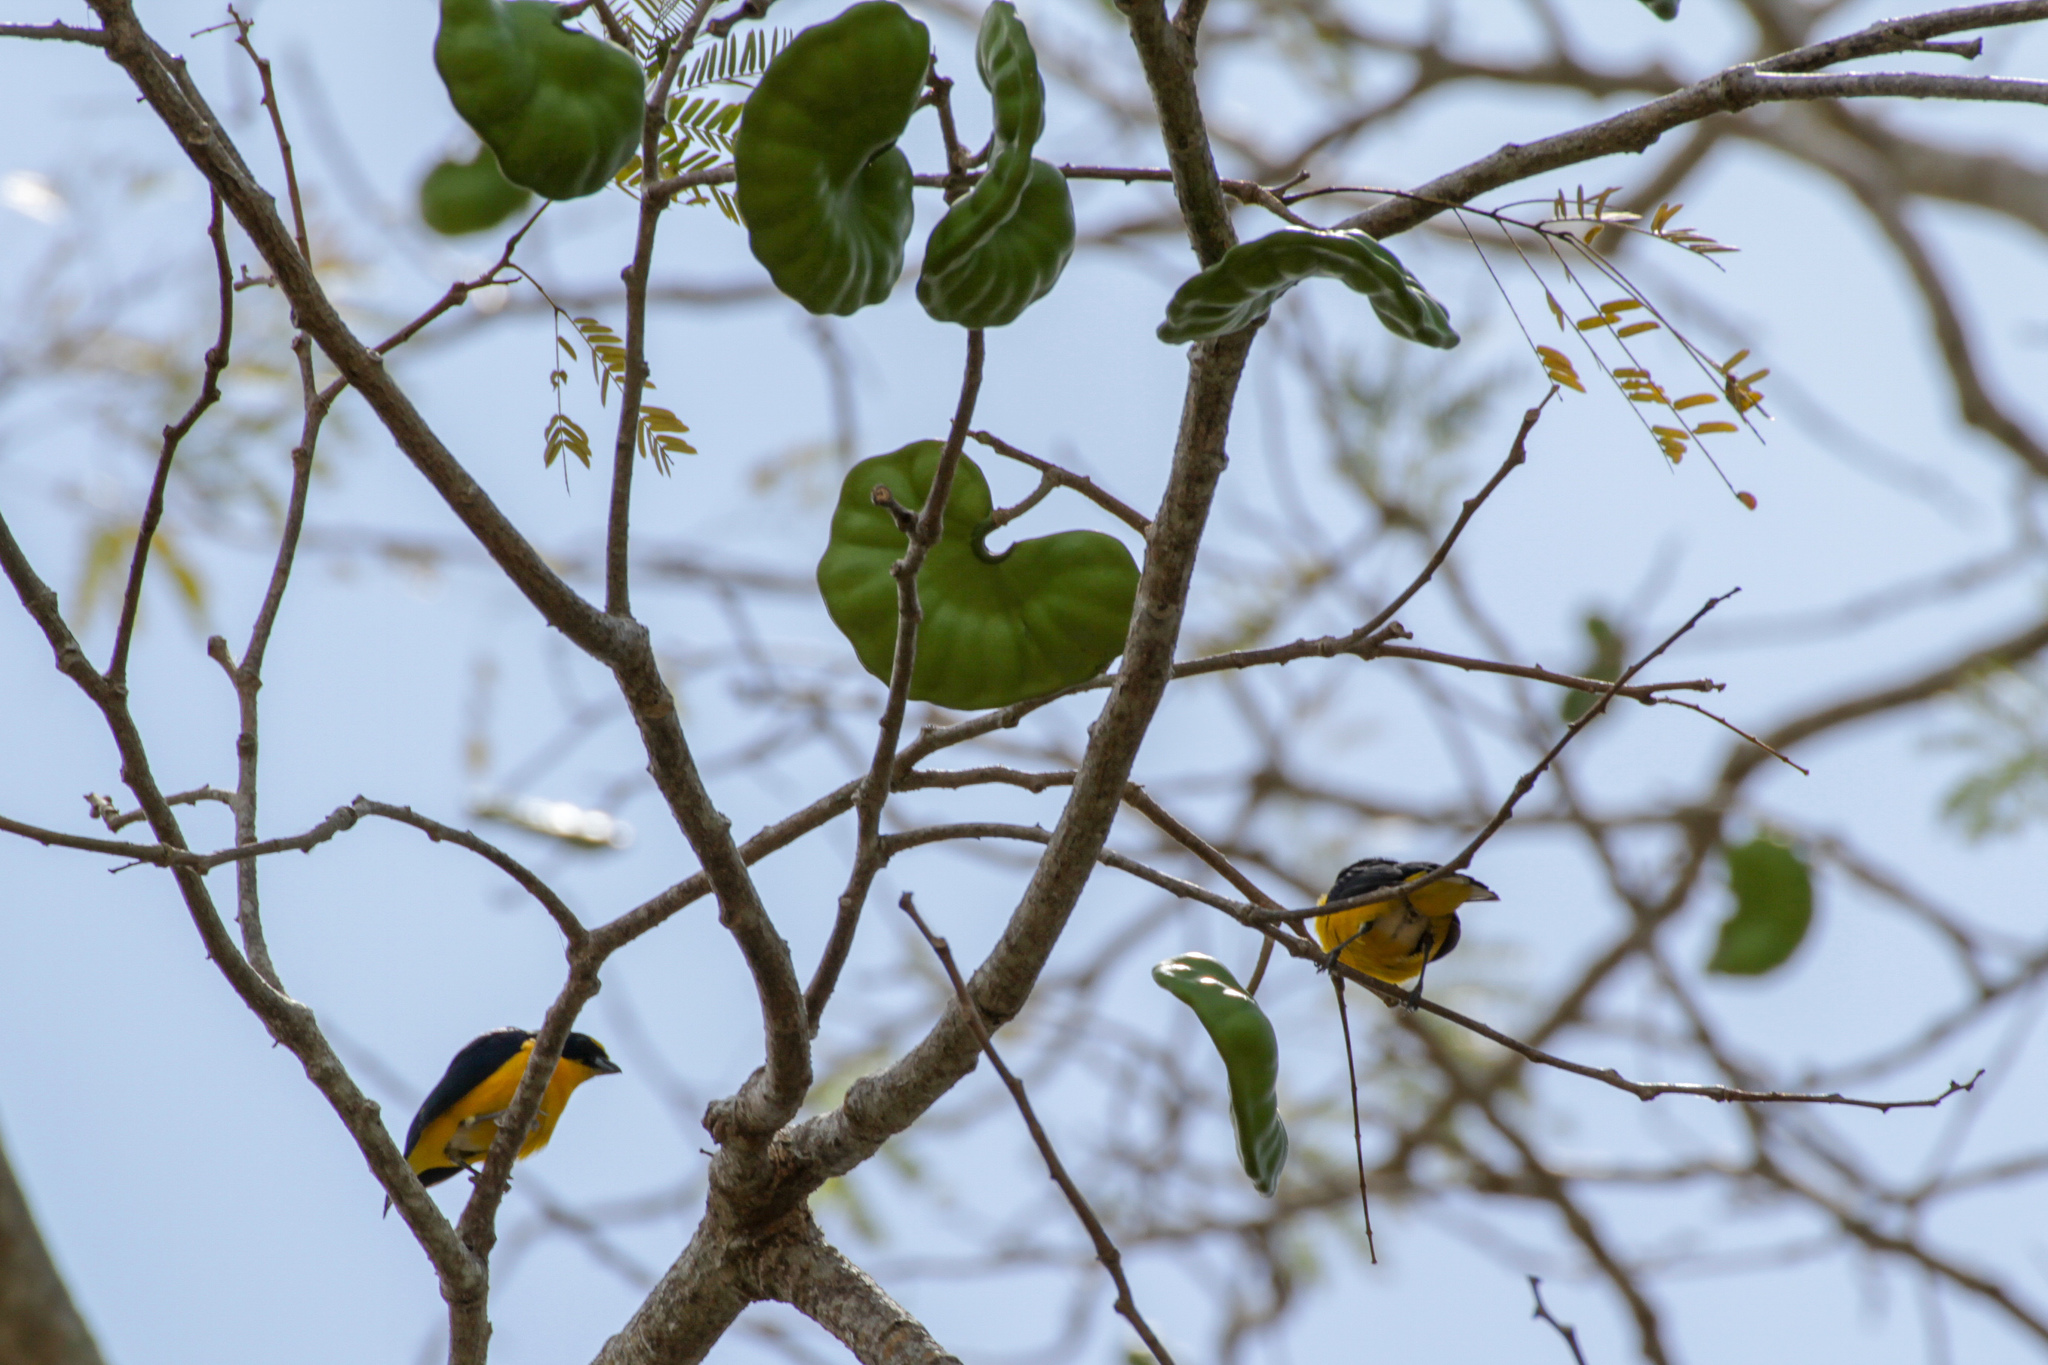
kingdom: Animalia
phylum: Chordata
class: Aves
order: Passeriformes
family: Fringillidae
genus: Euphonia
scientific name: Euphonia hirundinacea
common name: Yellow-throated euphonia
